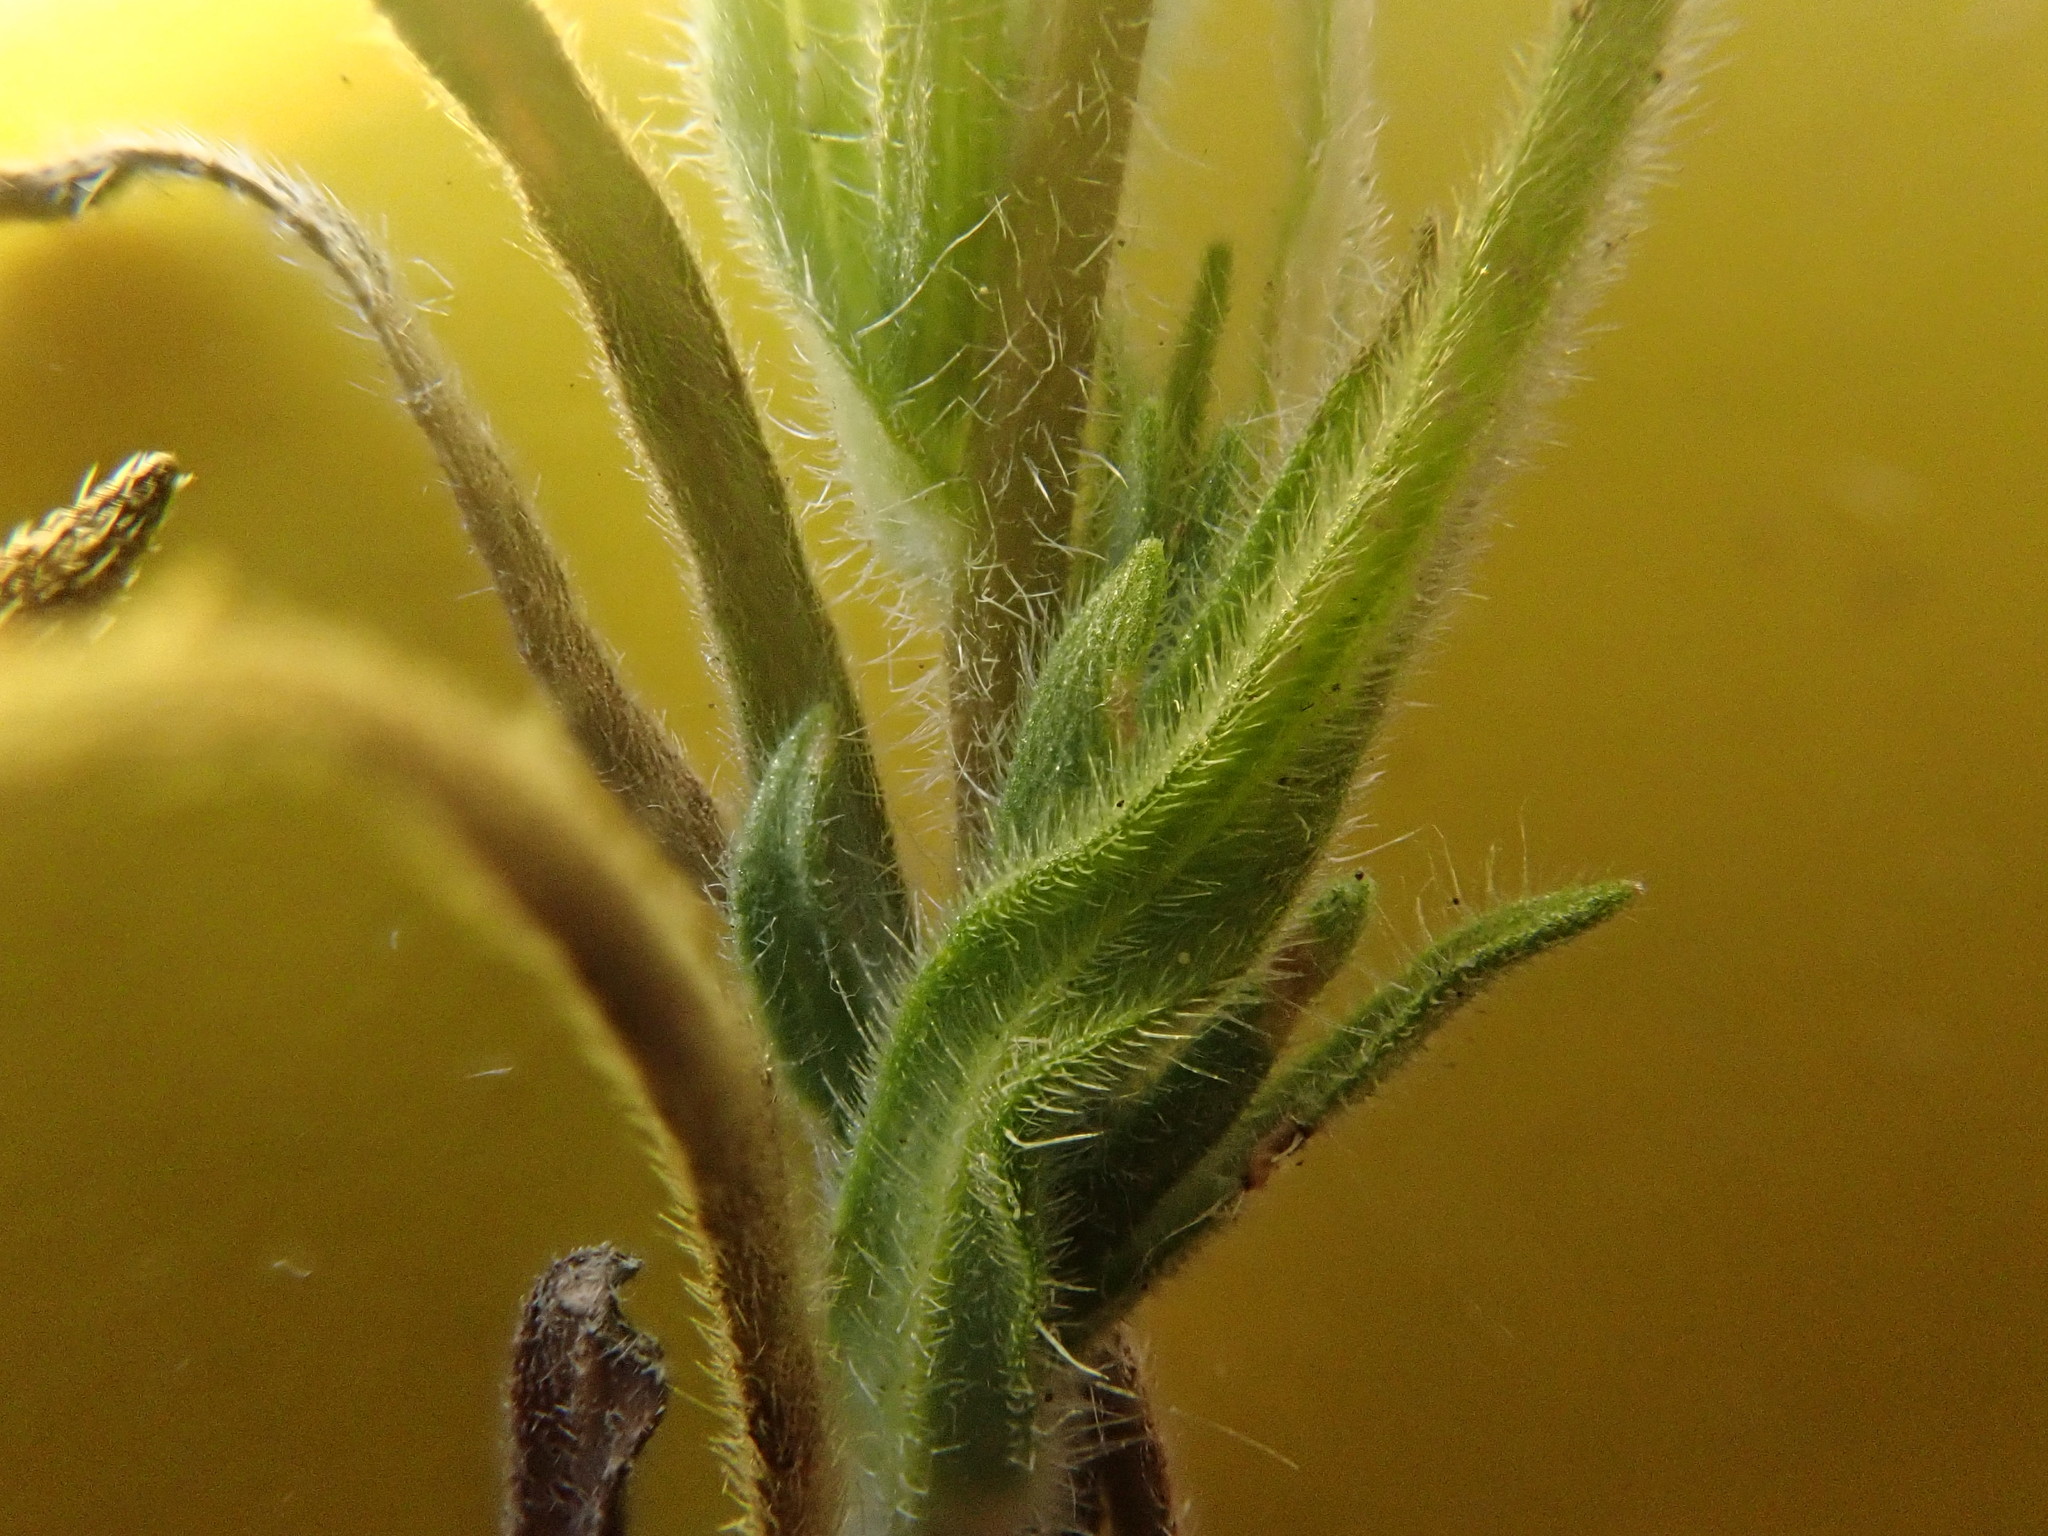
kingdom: Plantae
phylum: Tracheophyta
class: Magnoliopsida
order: Asterales
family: Asteraceae
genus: Madia
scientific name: Madia gracilis
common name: Grassy tarweed
